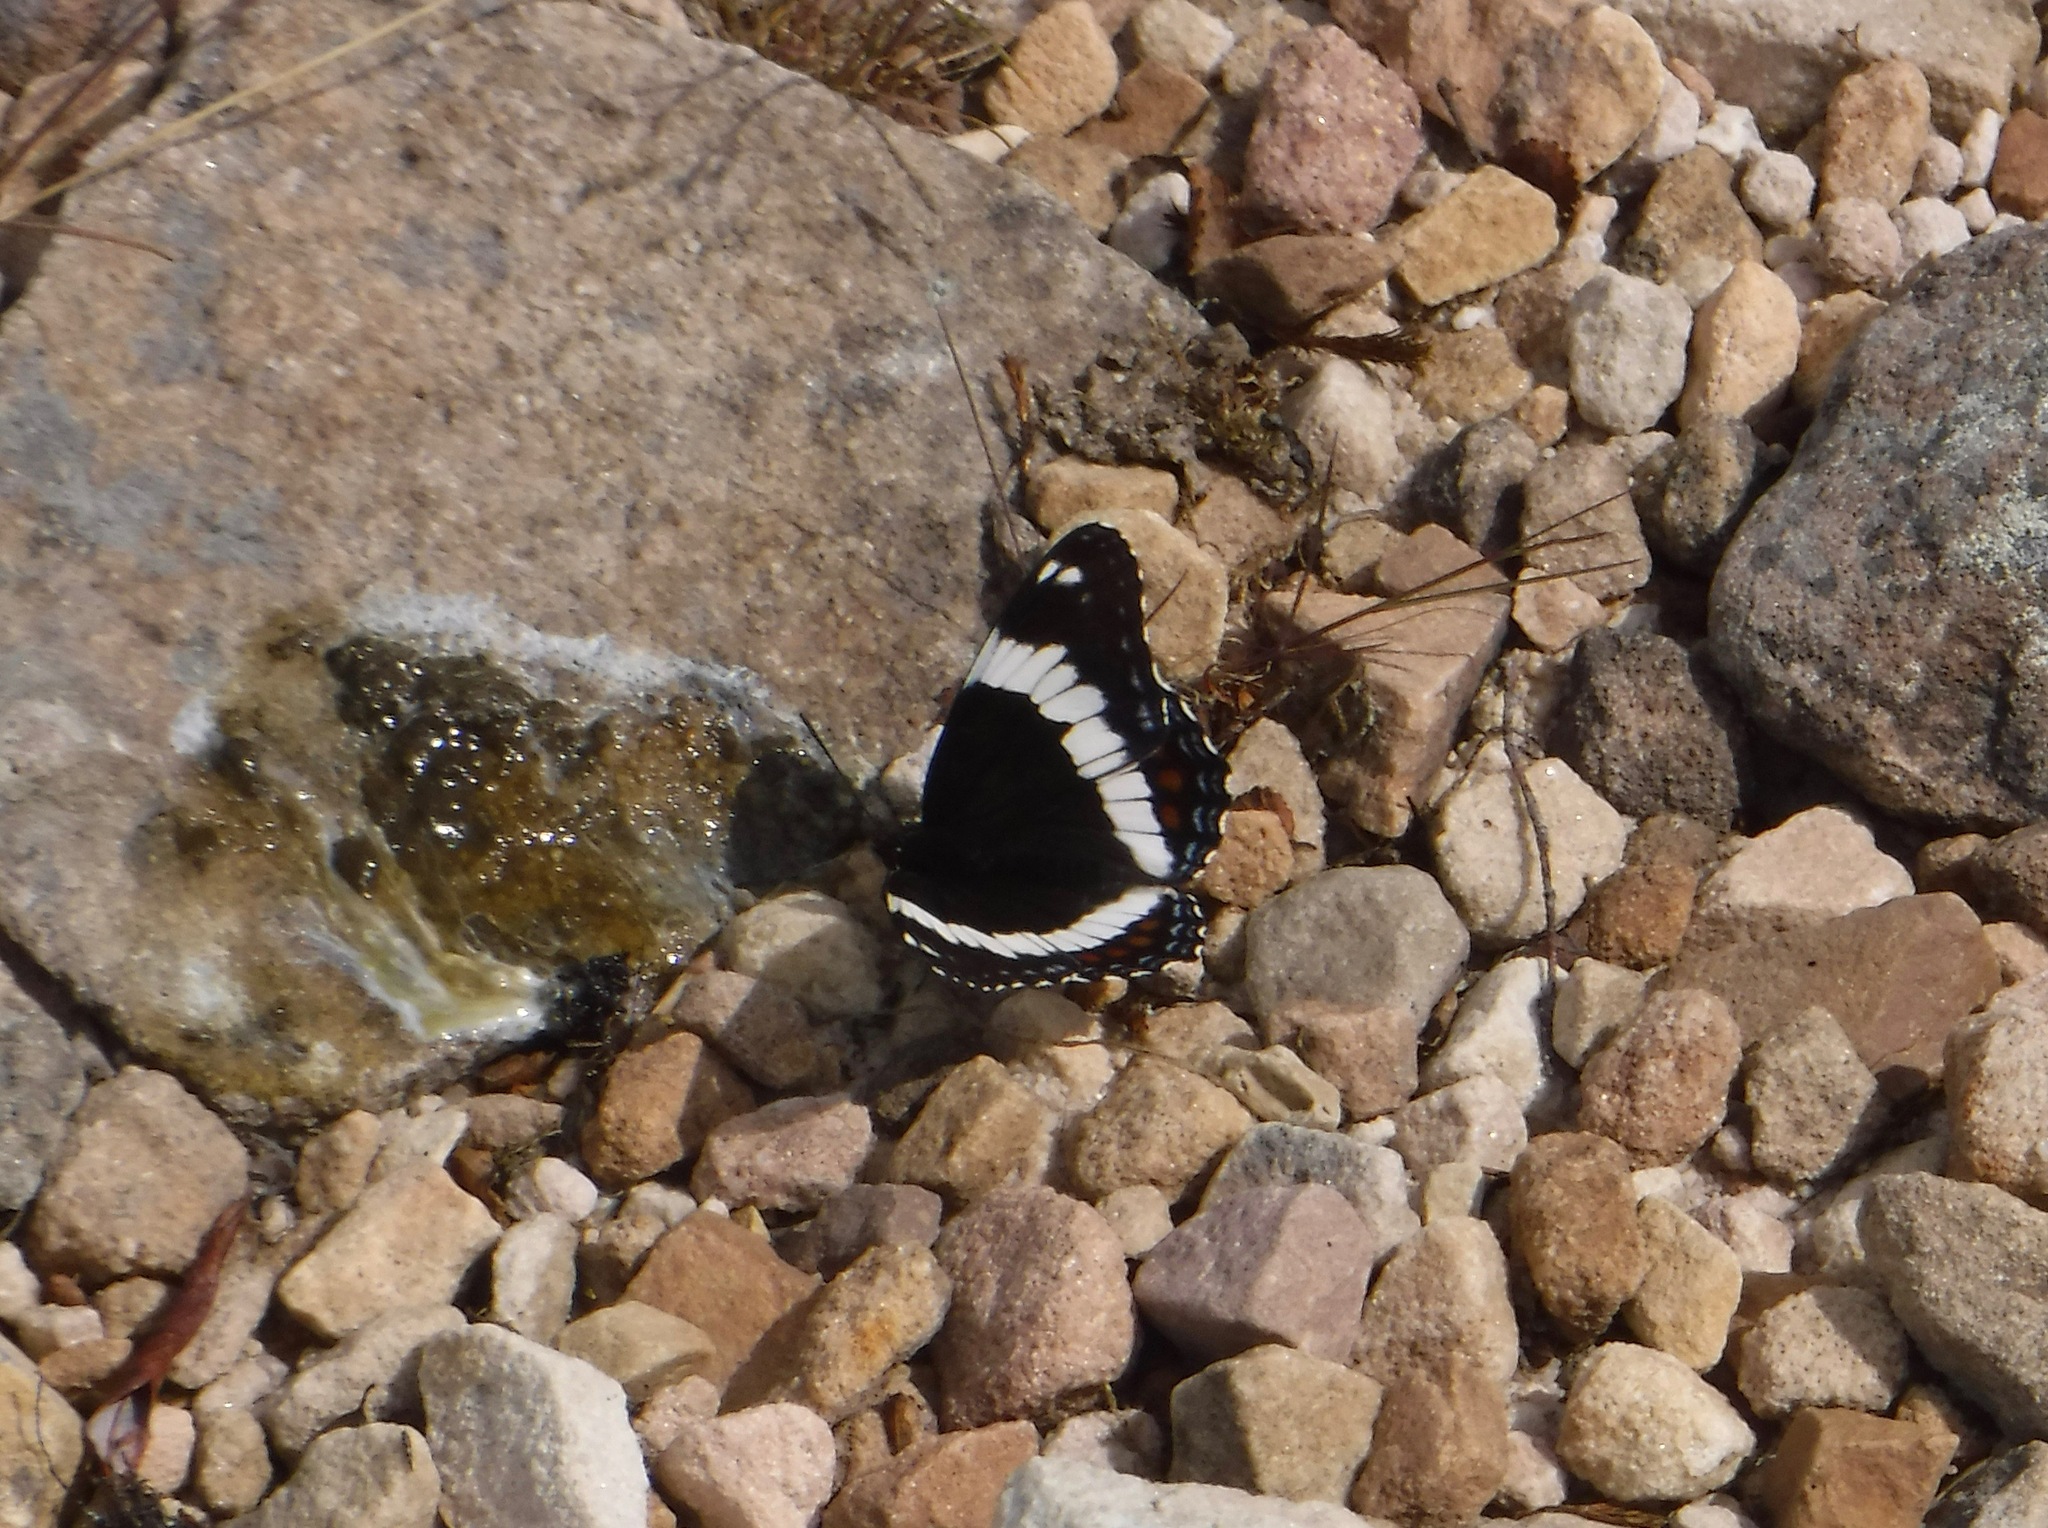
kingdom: Animalia
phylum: Arthropoda
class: Insecta
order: Lepidoptera
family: Nymphalidae
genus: Limenitis
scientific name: Limenitis arthemis
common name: Red-spotted admiral
